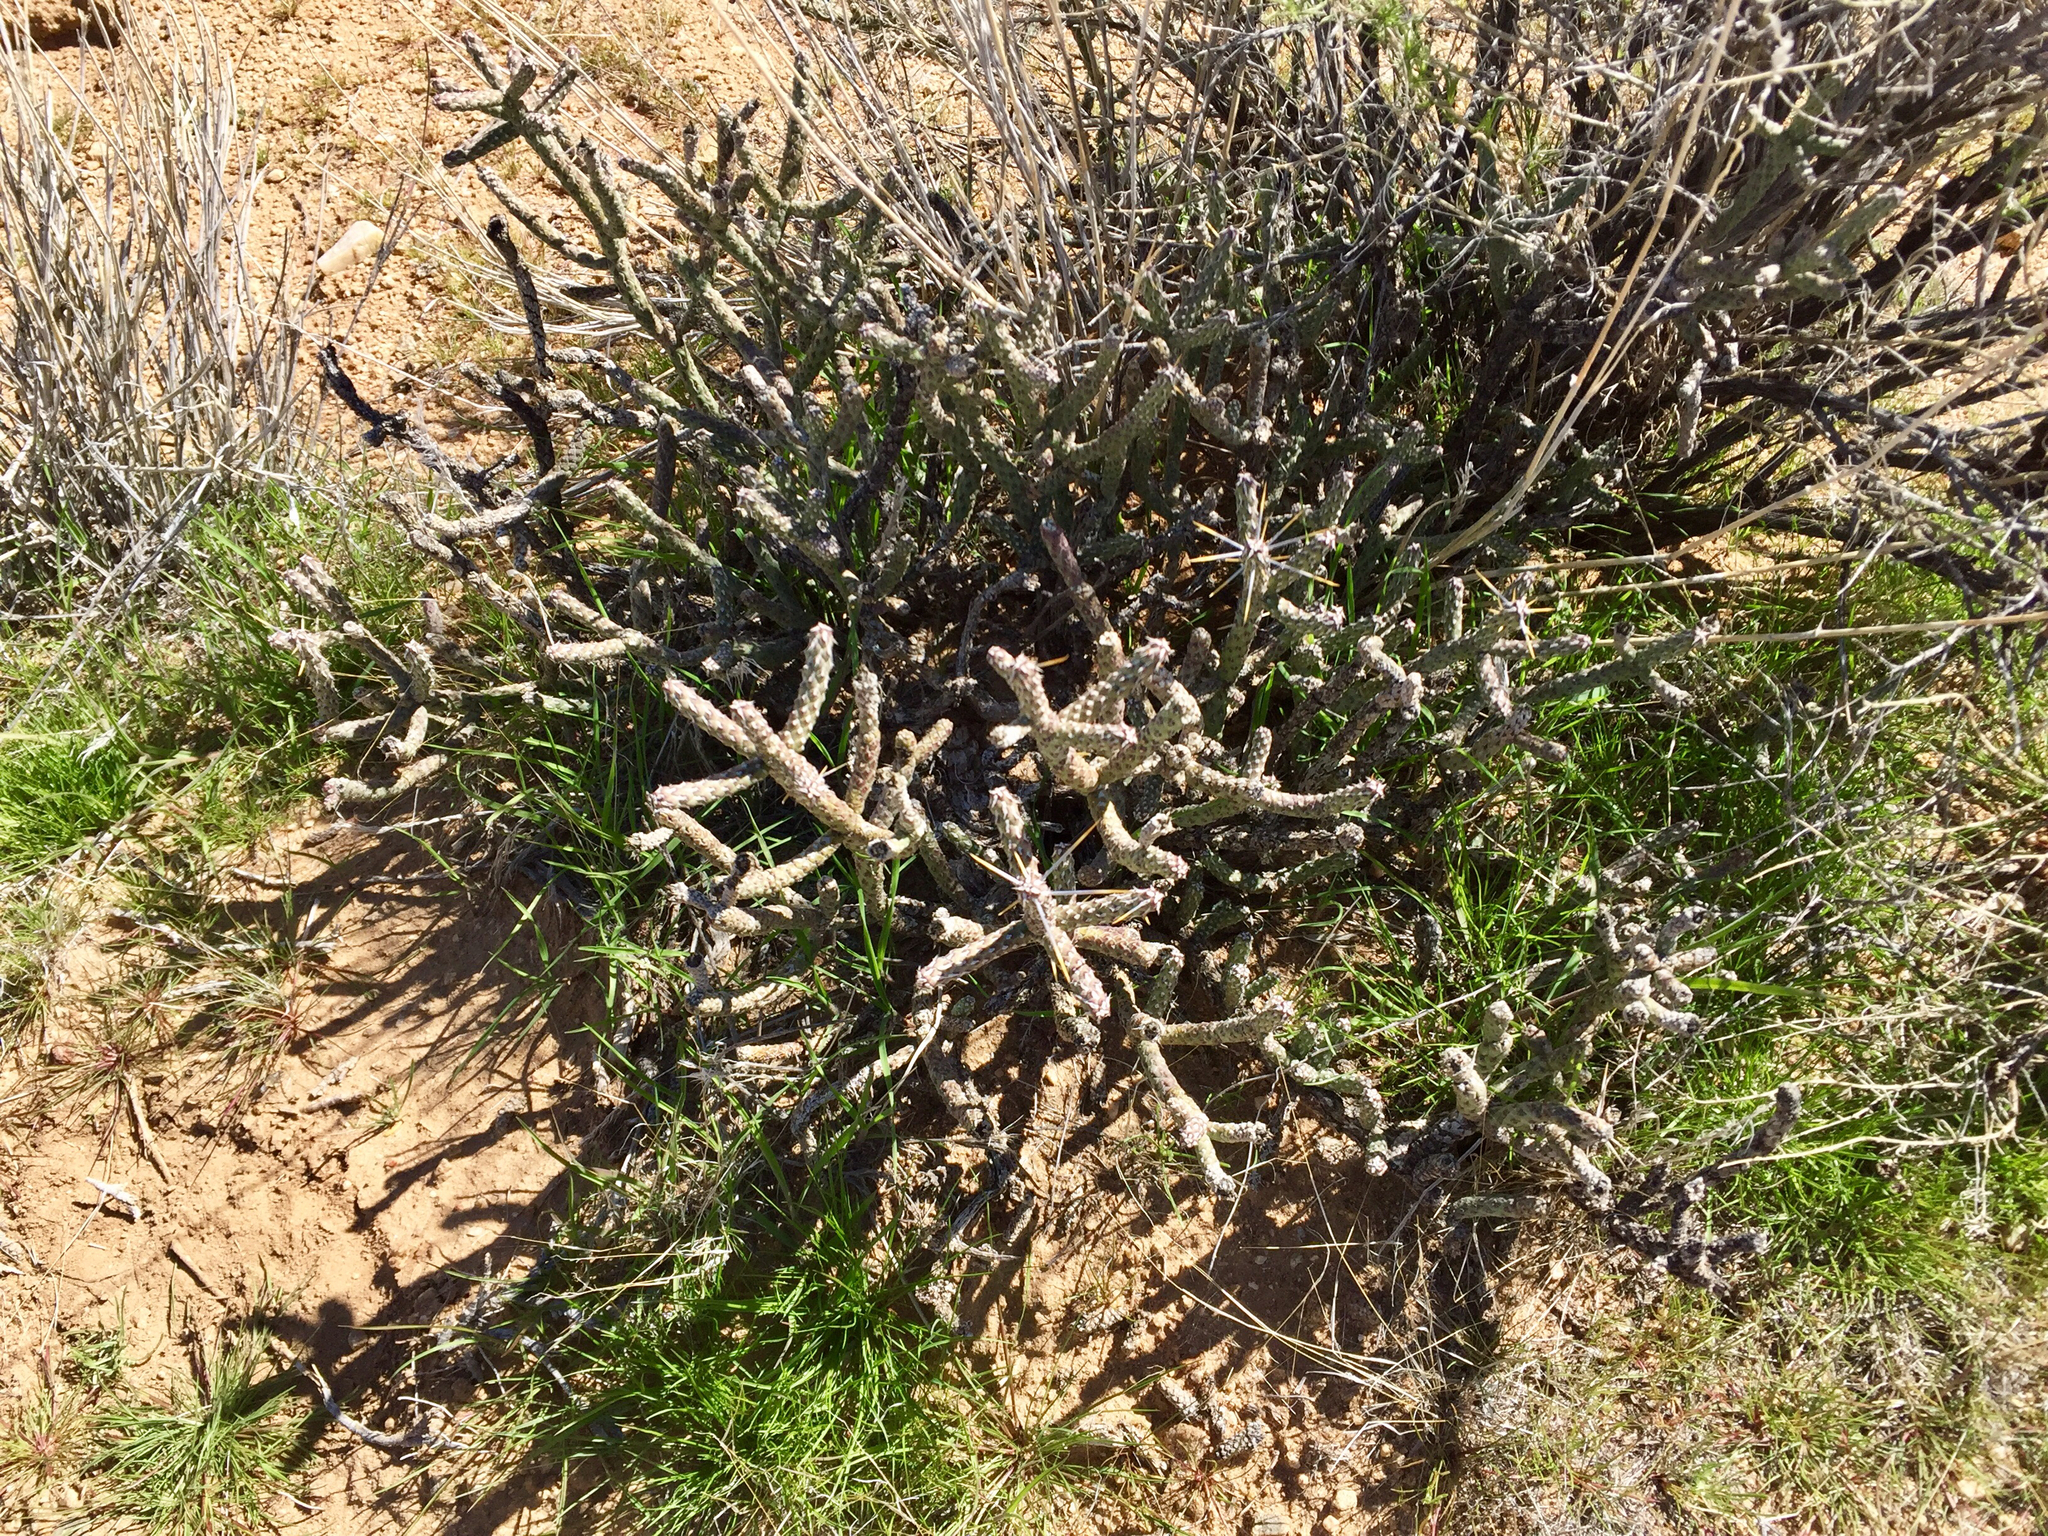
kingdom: Plantae
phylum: Tracheophyta
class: Magnoliopsida
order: Caryophyllales
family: Cactaceae
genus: Cylindropuntia
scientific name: Cylindropuntia ramosissima
